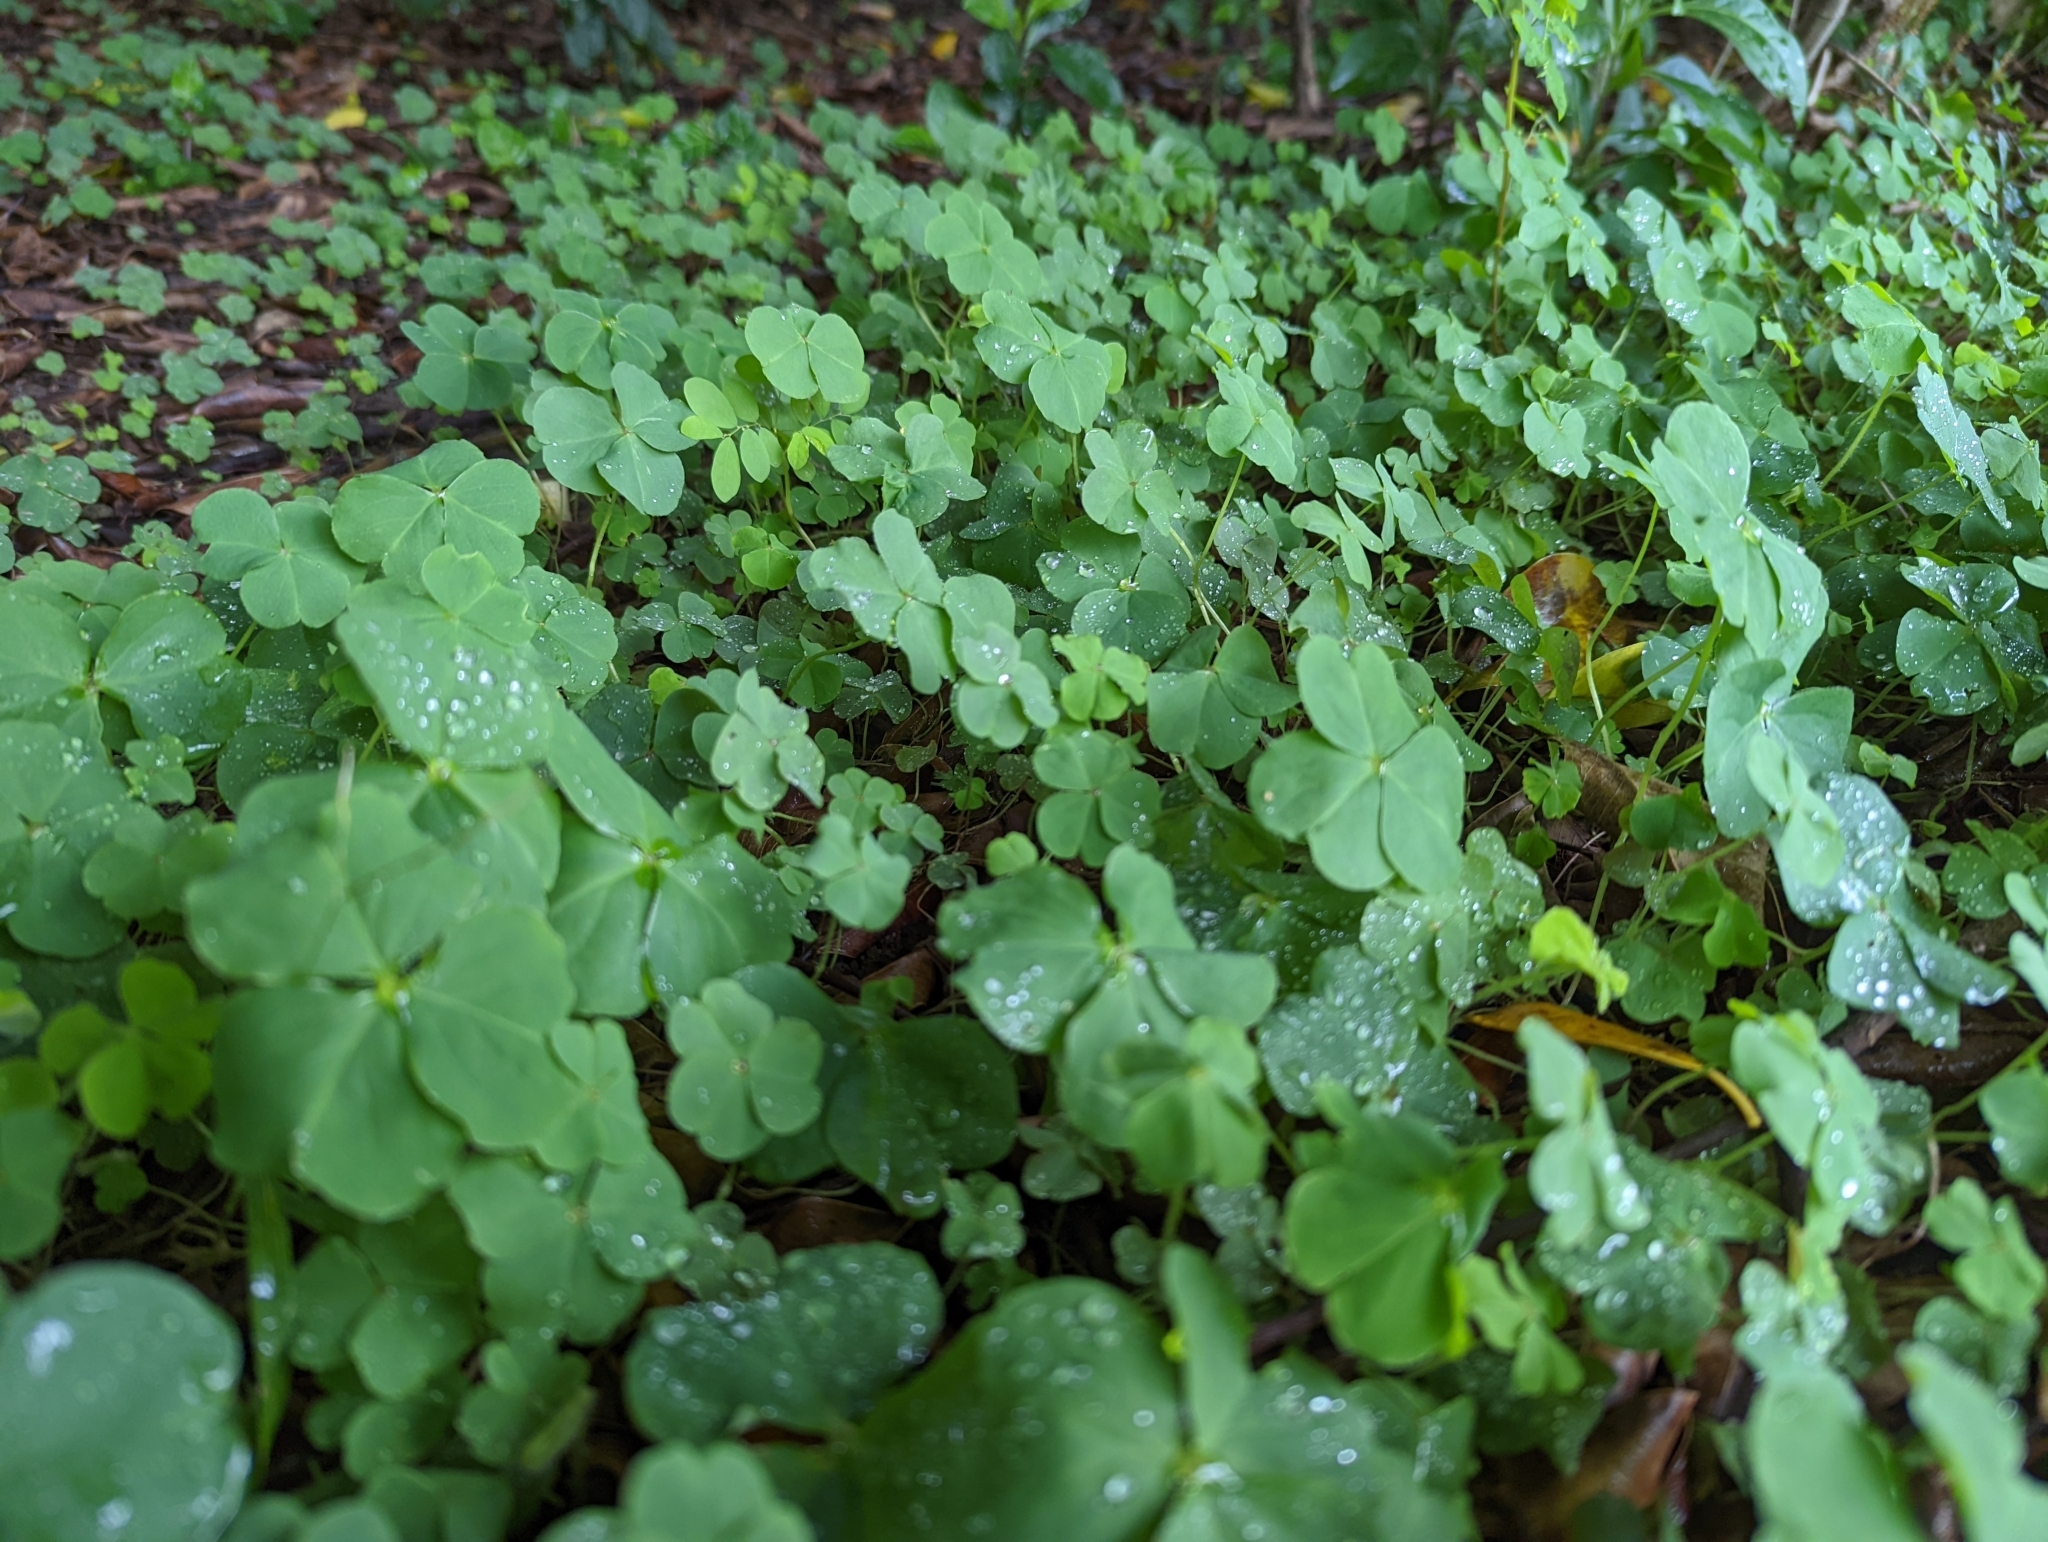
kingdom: Plantae
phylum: Tracheophyta
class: Magnoliopsida
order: Oxalidales
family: Oxalidaceae
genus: Oxalis
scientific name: Oxalis debilis
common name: Large-flowered pink-sorrel
